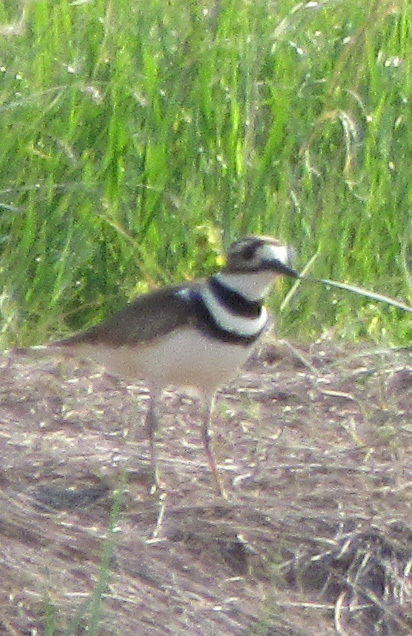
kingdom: Animalia
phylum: Chordata
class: Aves
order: Charadriiformes
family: Charadriidae
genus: Charadrius
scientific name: Charadrius vociferus
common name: Killdeer
